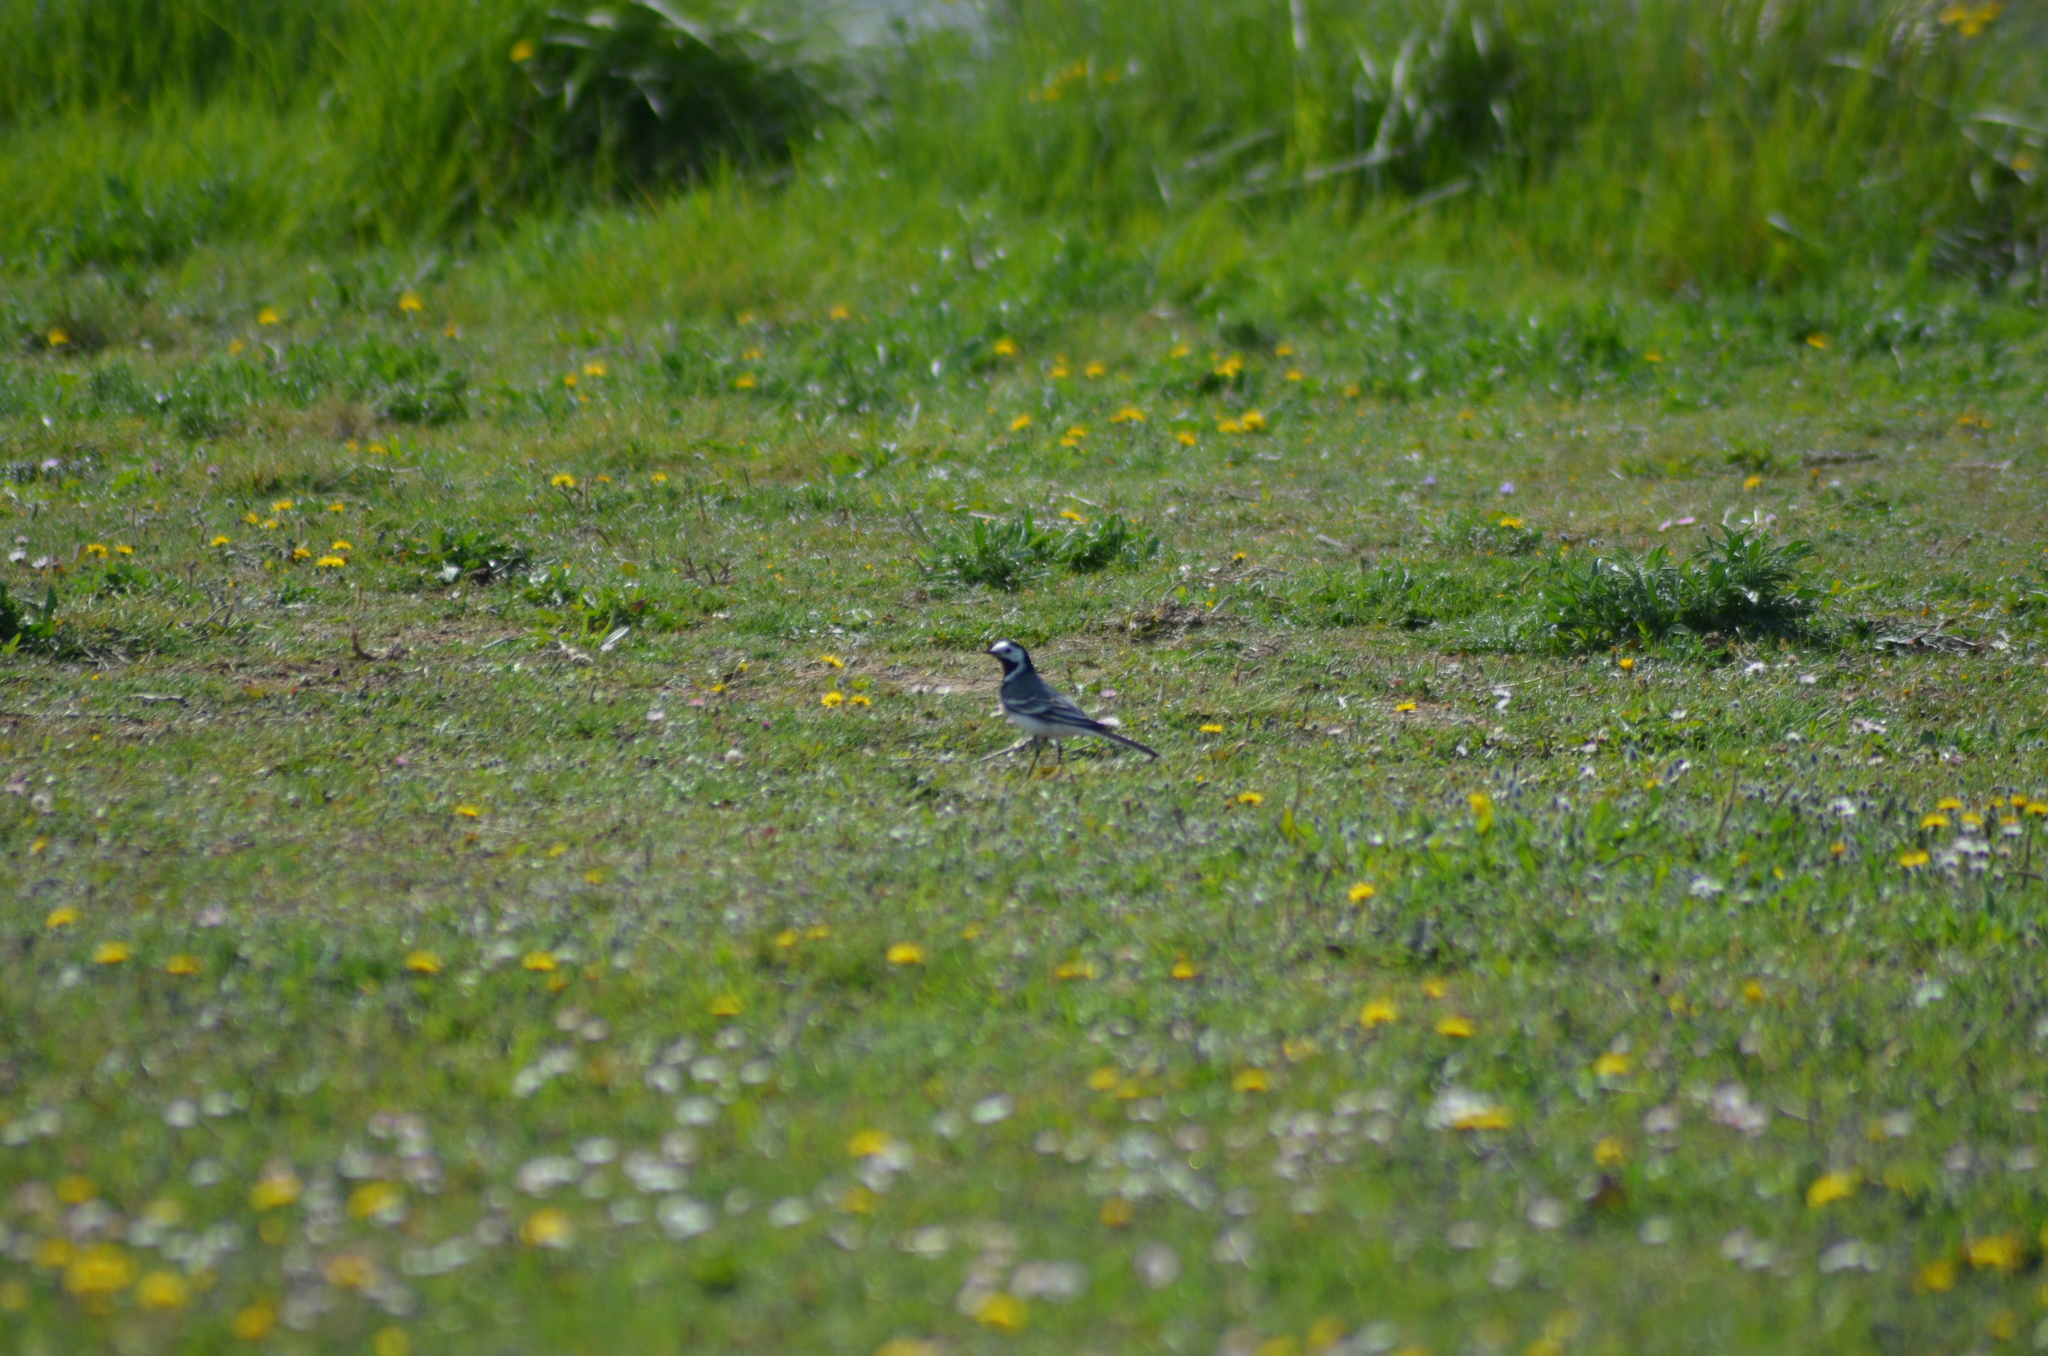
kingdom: Animalia
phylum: Chordata
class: Aves
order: Passeriformes
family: Motacillidae
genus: Motacilla
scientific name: Motacilla alba
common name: White wagtail
